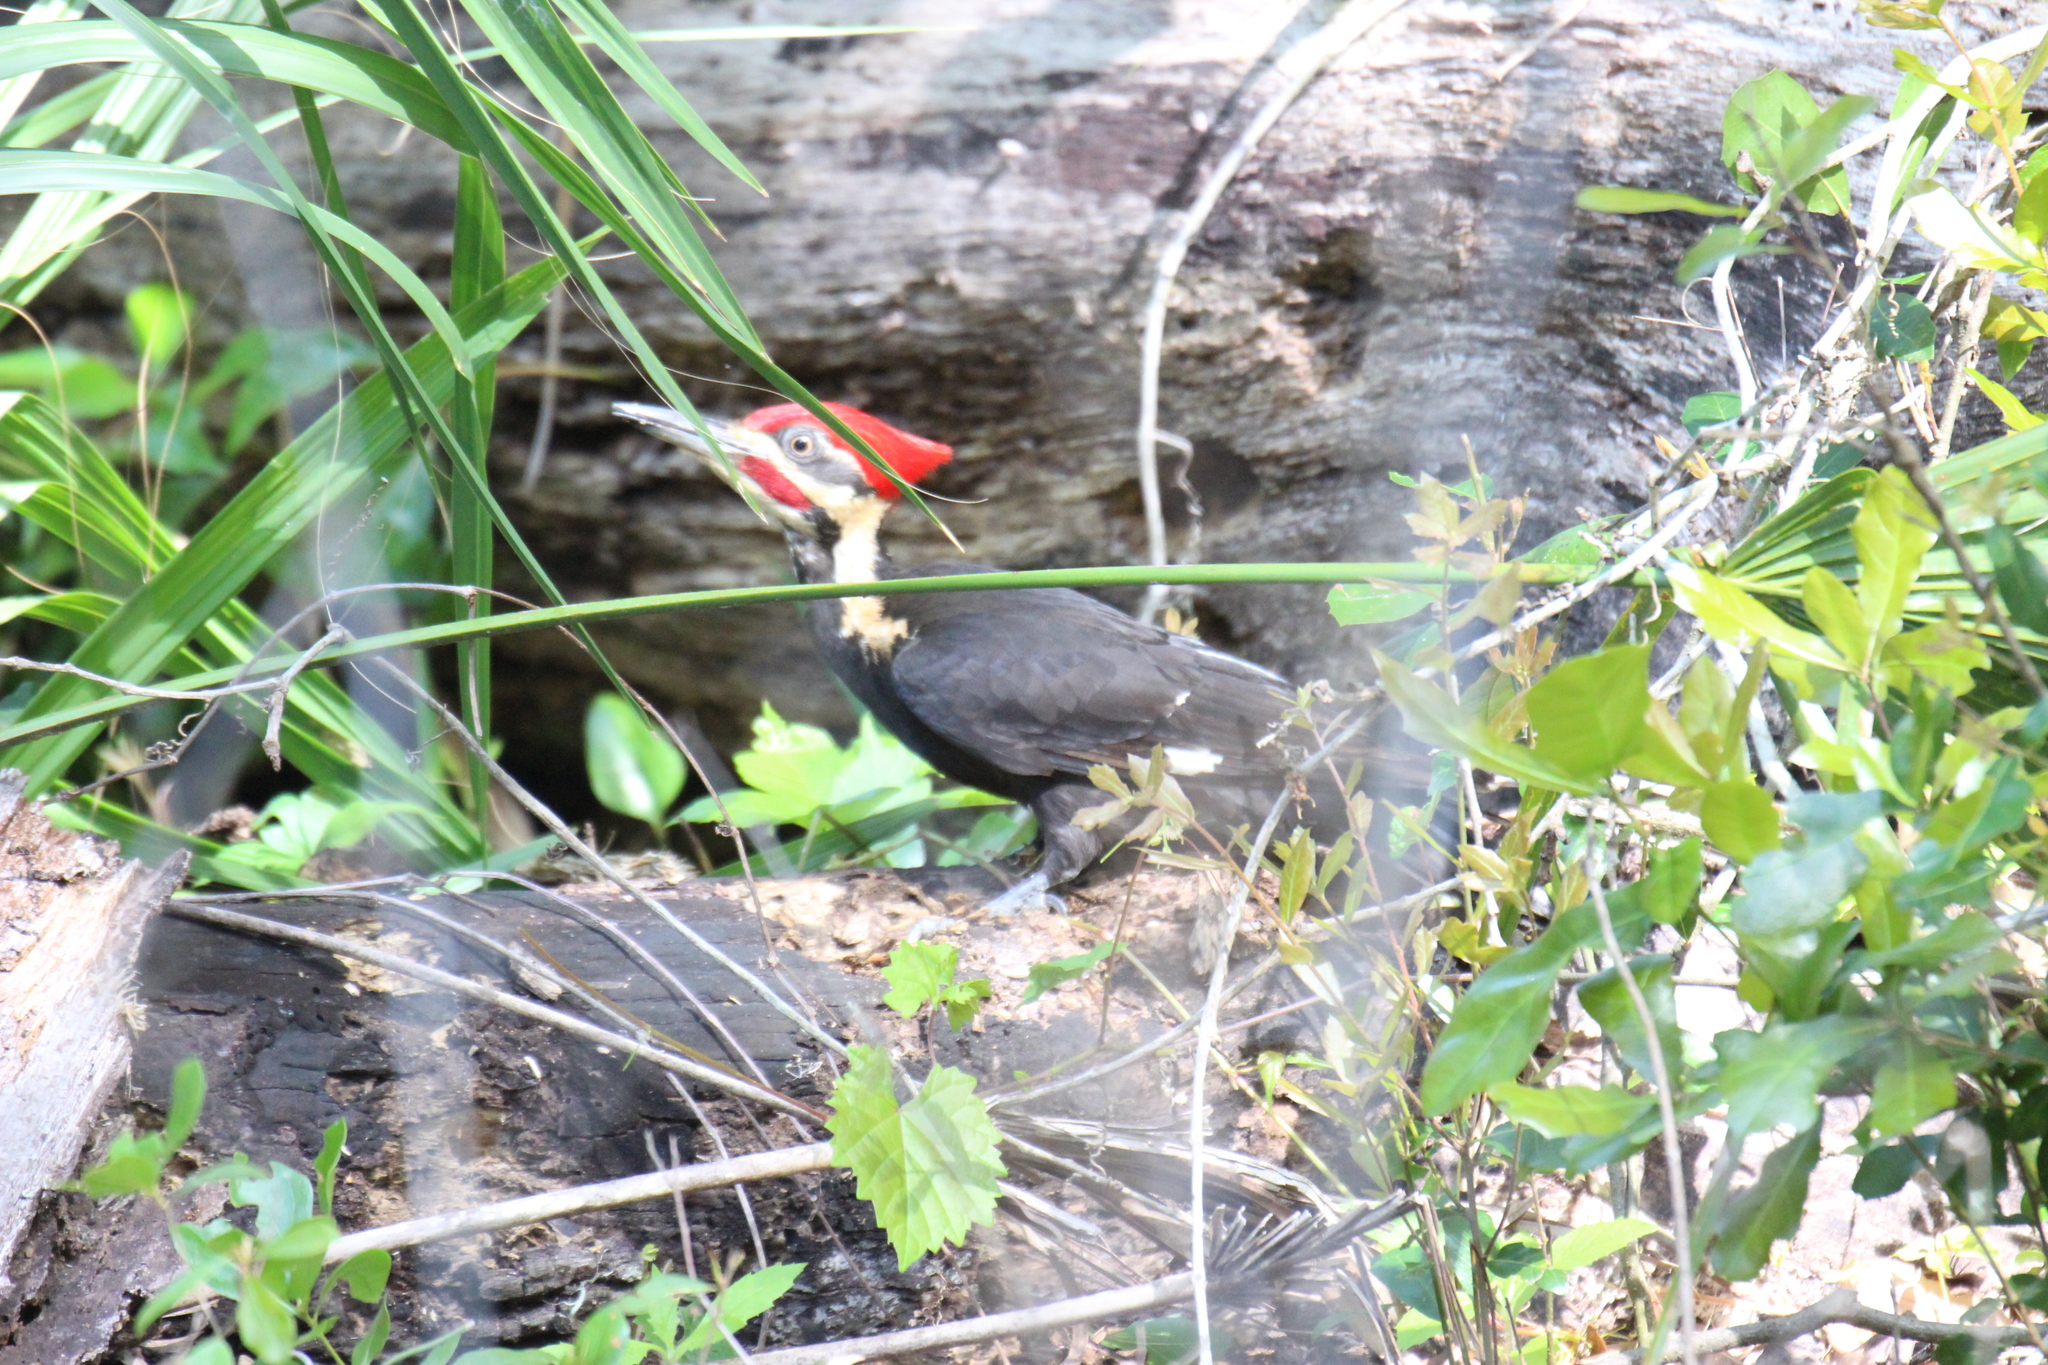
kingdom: Animalia
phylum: Chordata
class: Aves
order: Piciformes
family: Picidae
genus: Dryocopus
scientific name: Dryocopus pileatus
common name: Pileated woodpecker
